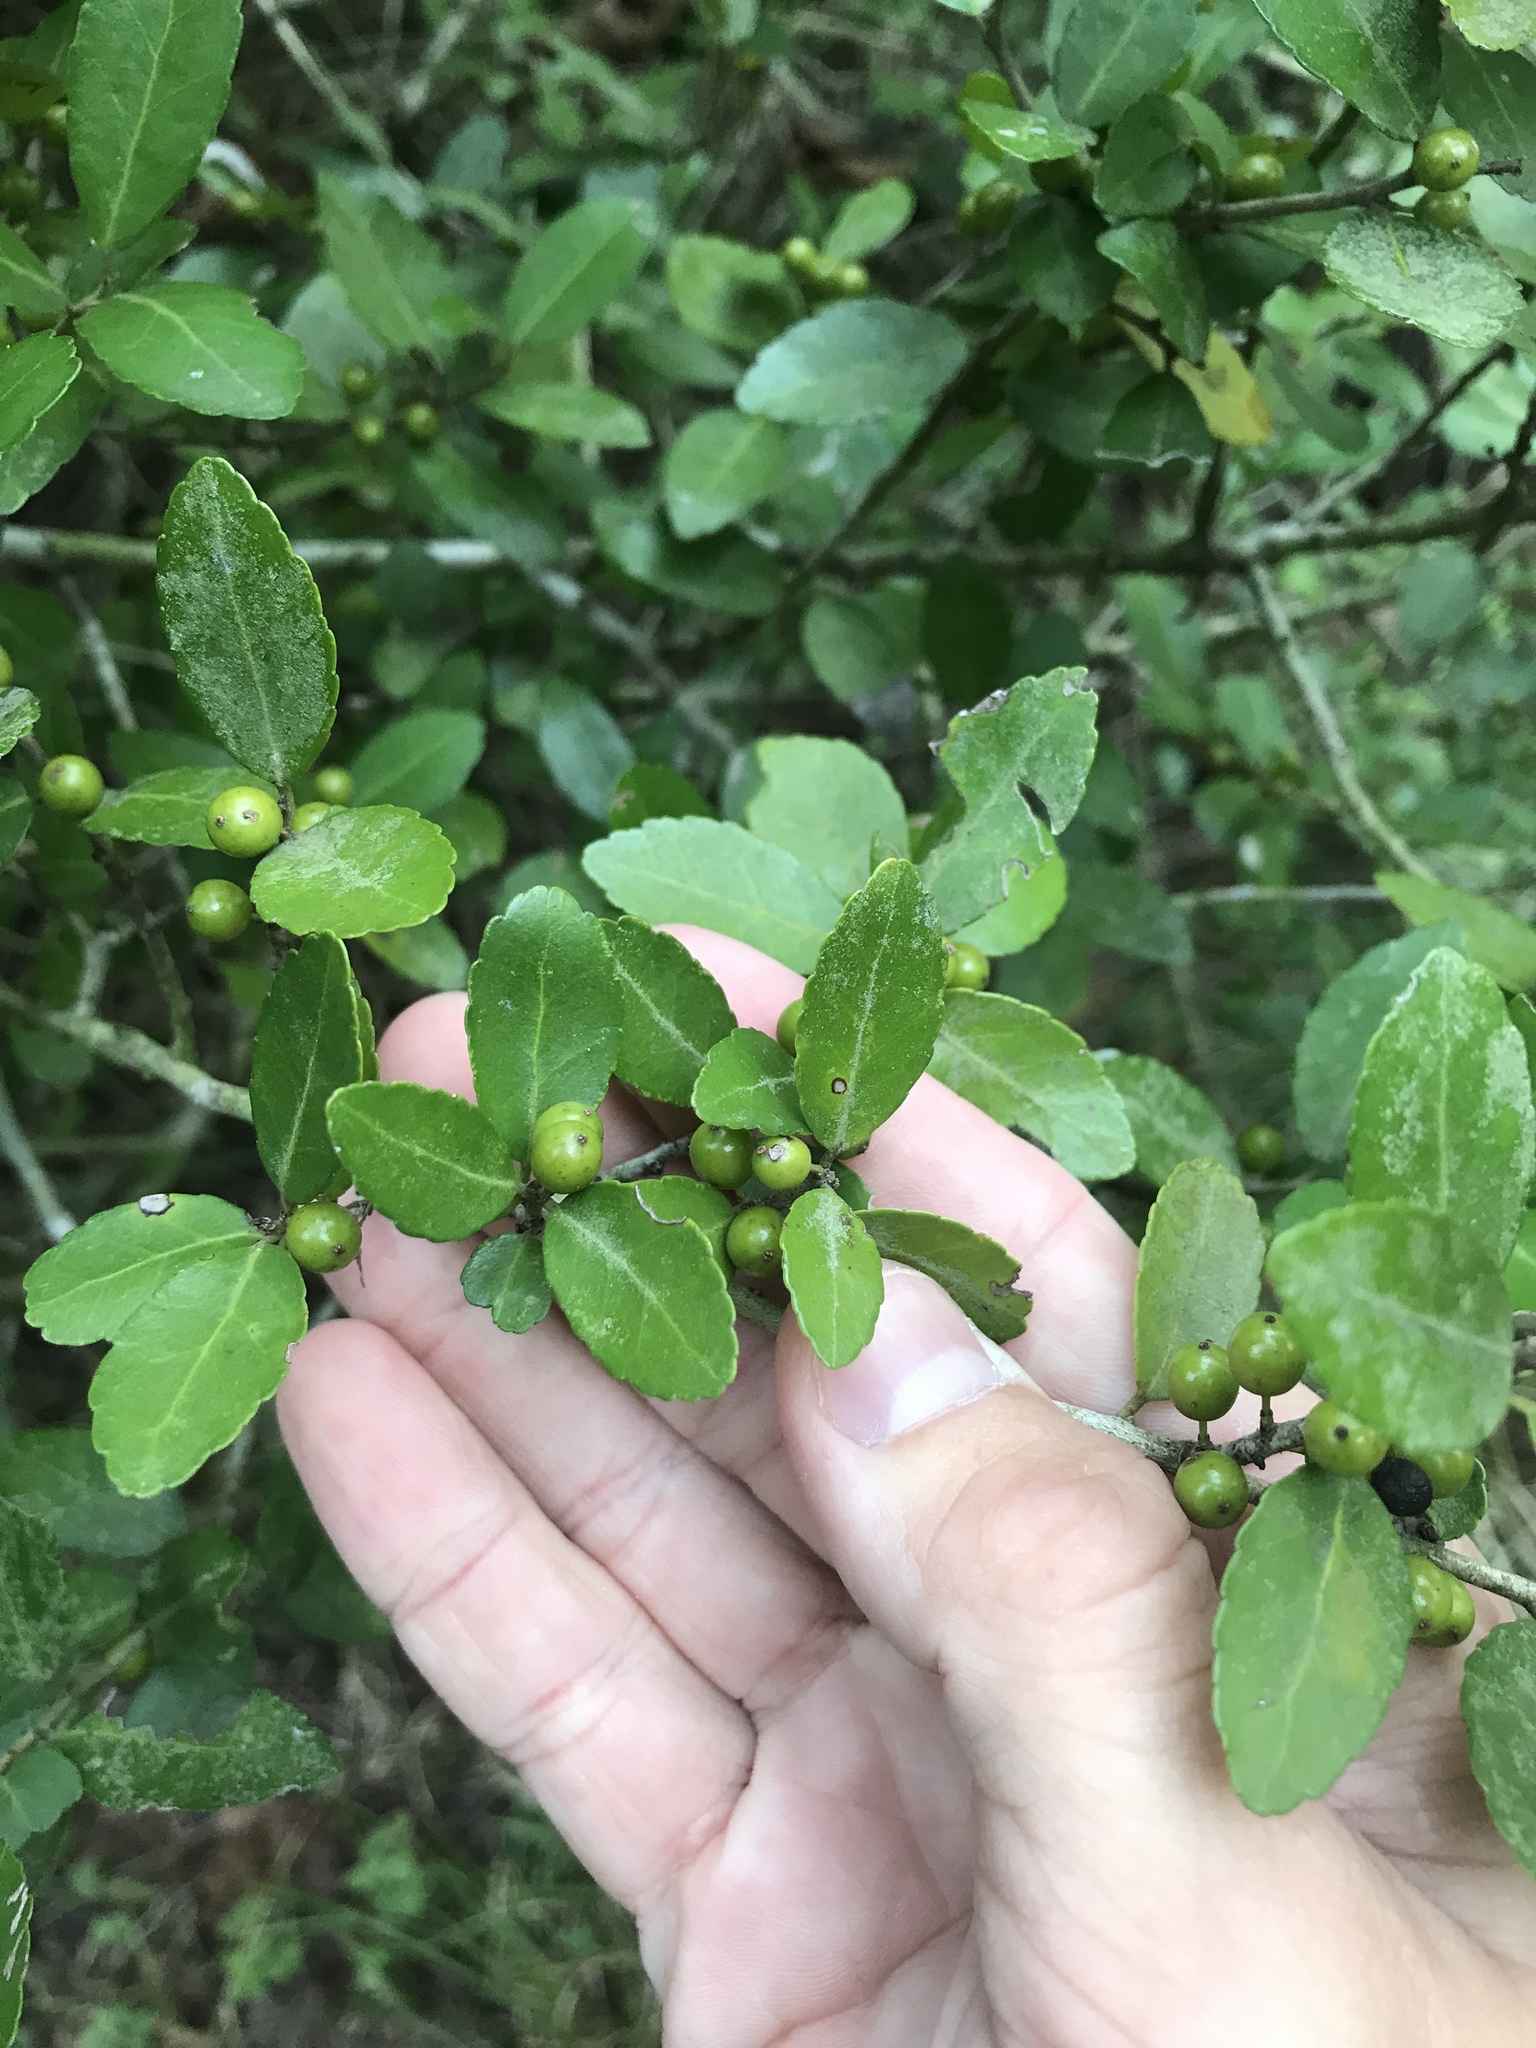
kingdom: Plantae
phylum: Tracheophyta
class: Magnoliopsida
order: Aquifoliales
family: Aquifoliaceae
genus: Ilex
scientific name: Ilex vomitoria
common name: Yaupon holly
